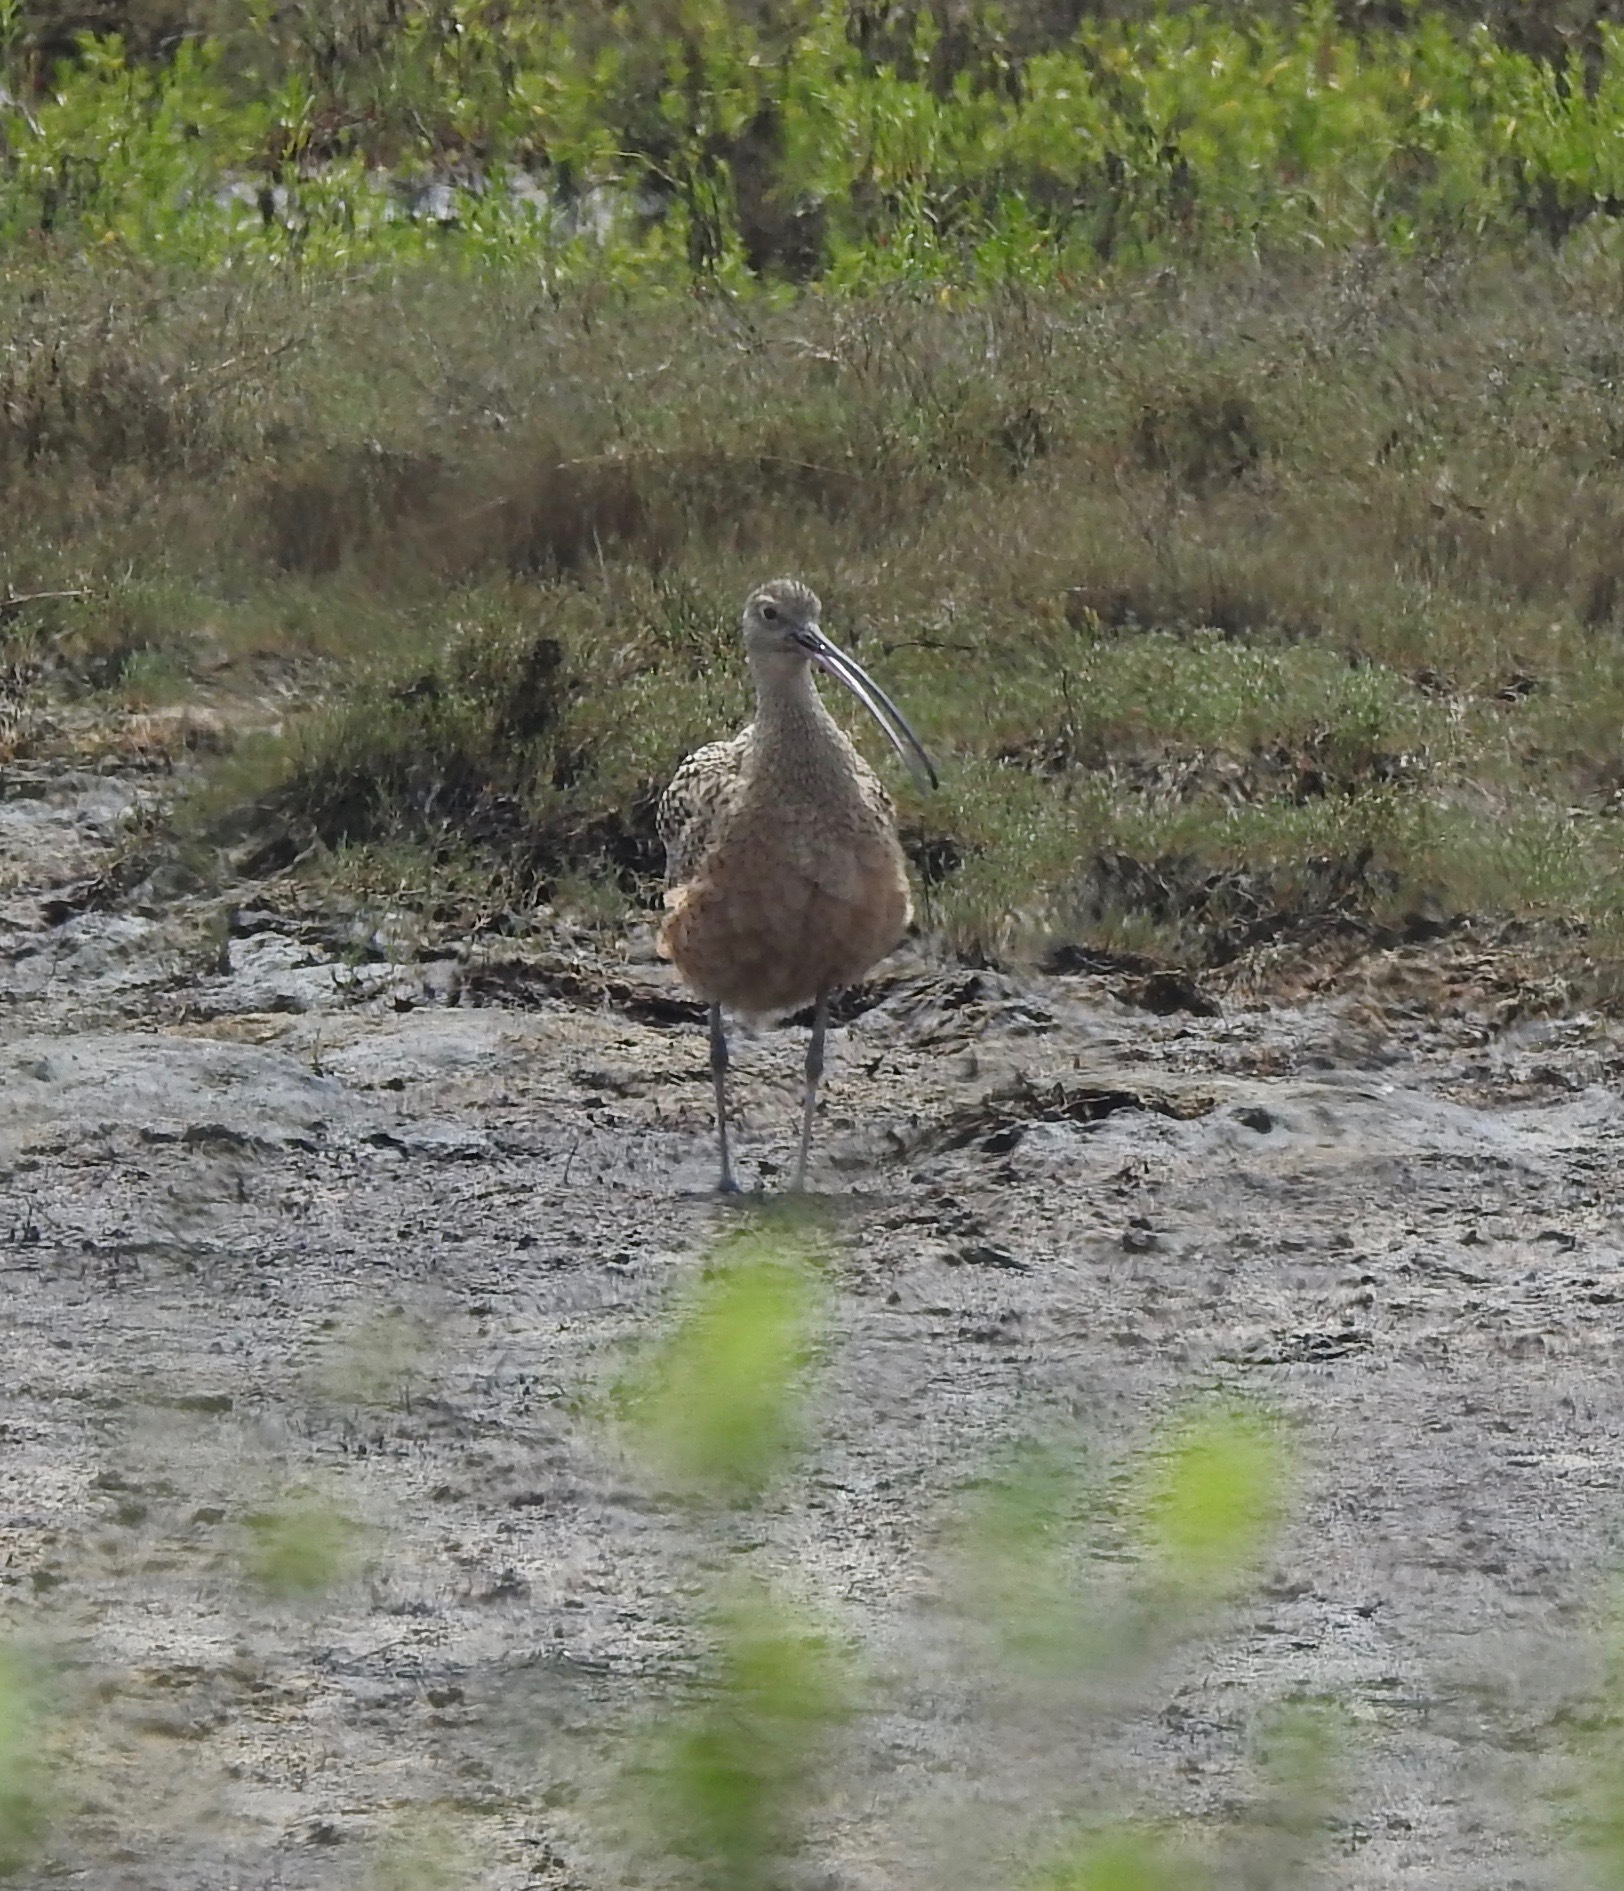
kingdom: Animalia
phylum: Chordata
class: Aves
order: Charadriiformes
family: Scolopacidae
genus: Numenius
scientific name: Numenius americanus
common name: Long-billed curlew
